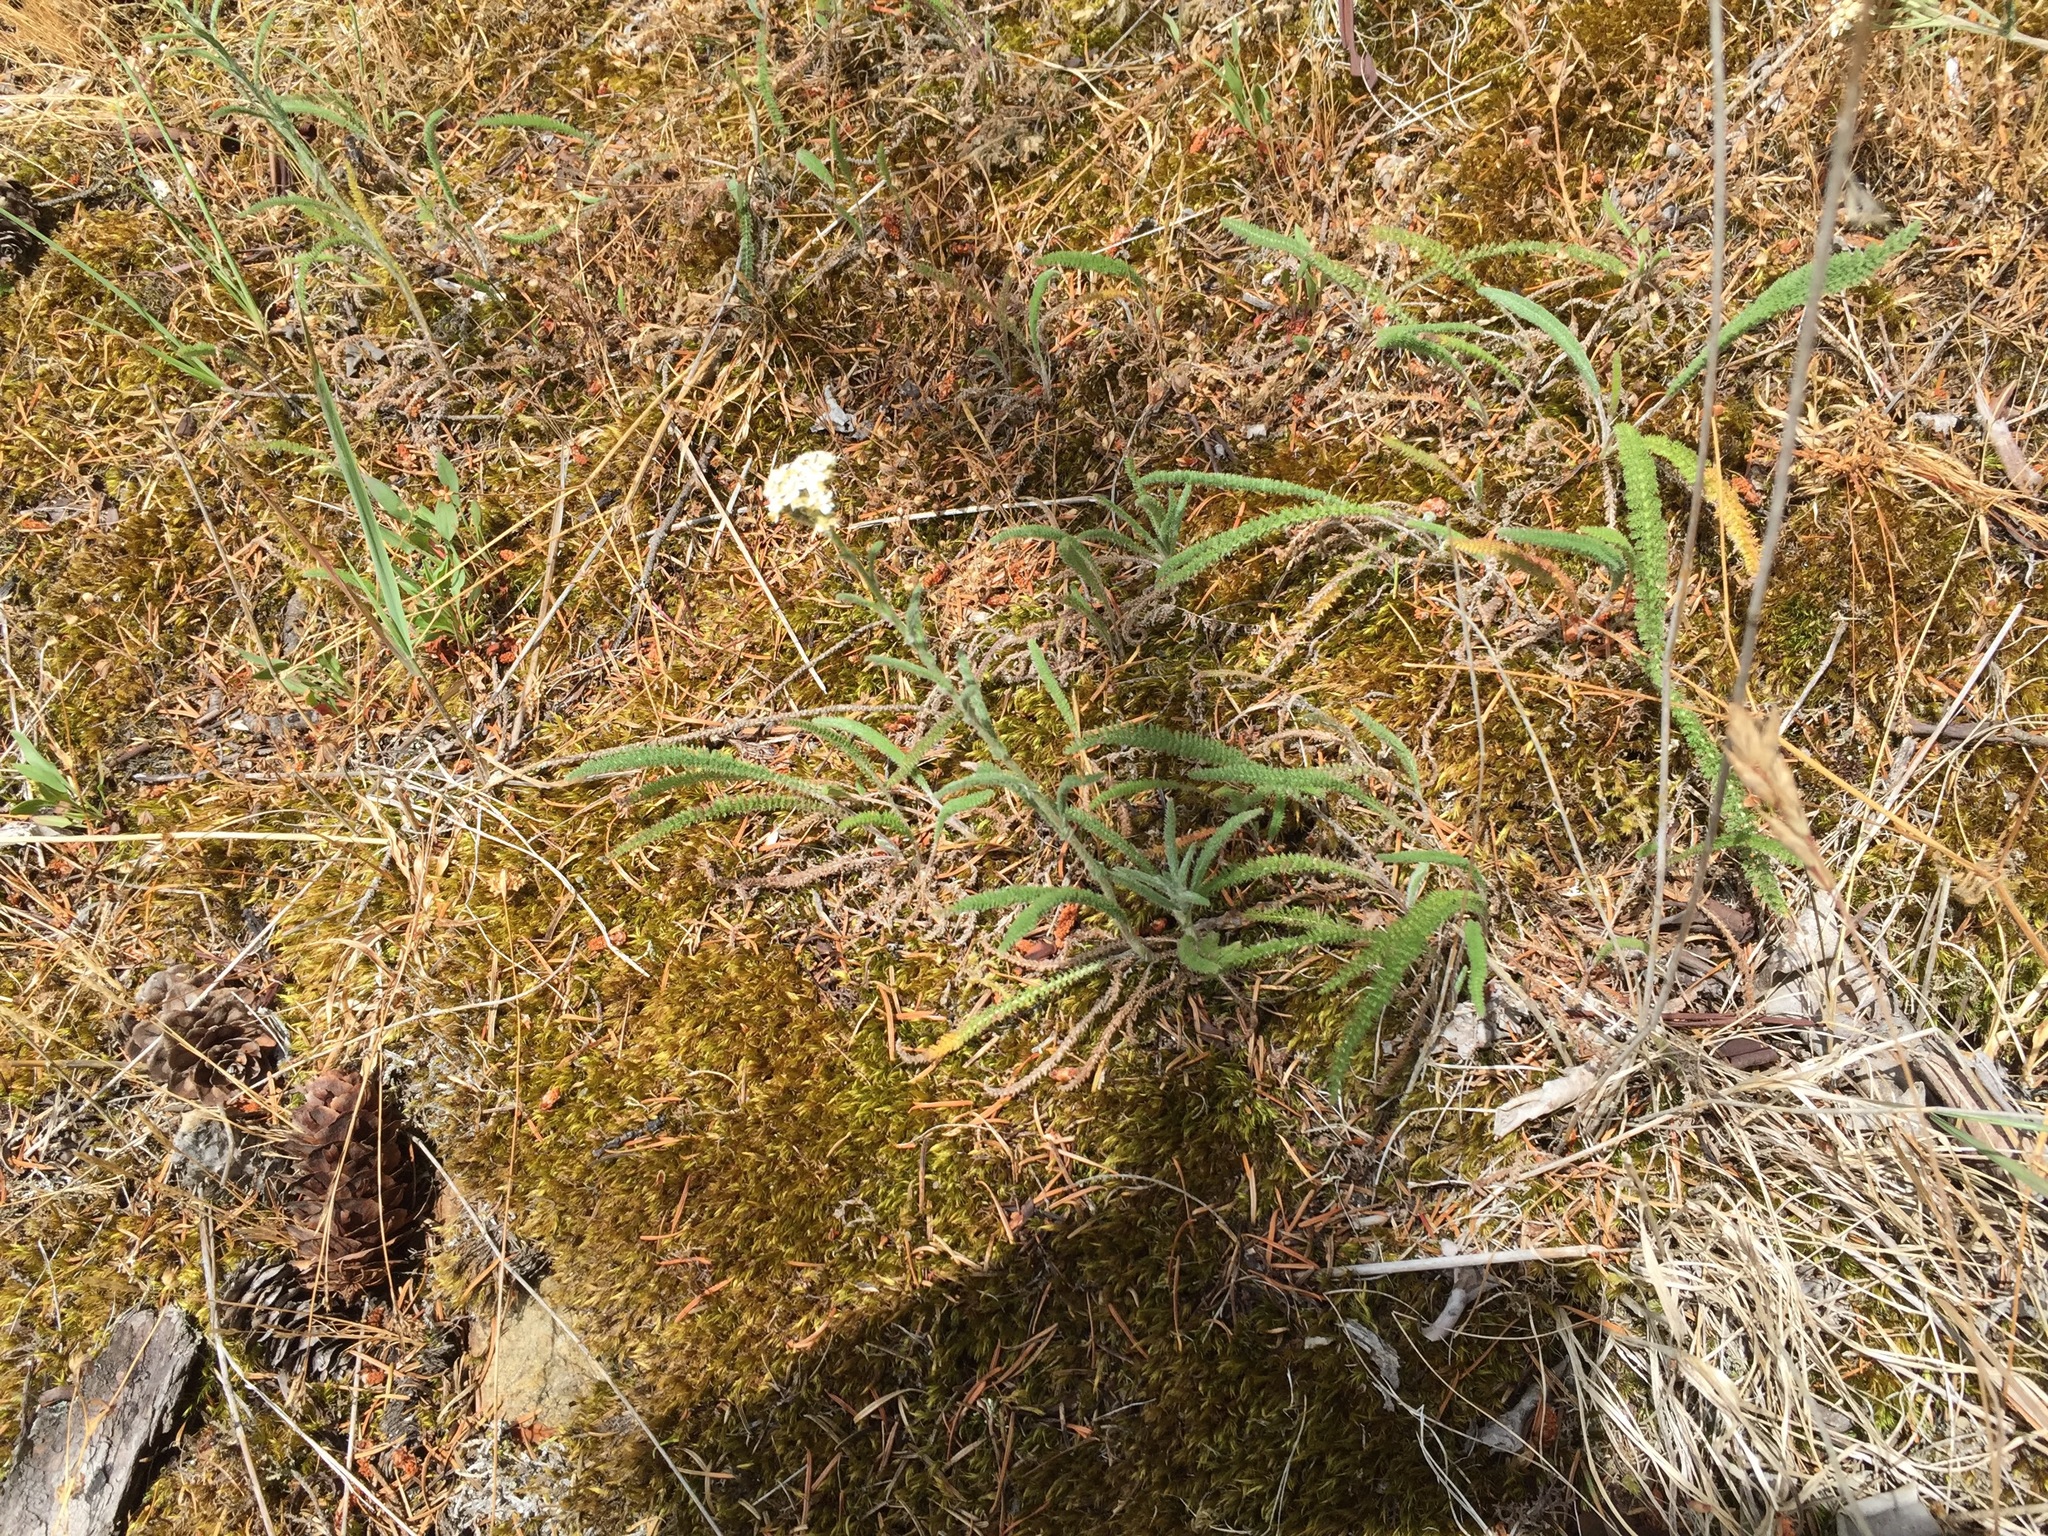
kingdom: Plantae
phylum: Tracheophyta
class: Magnoliopsida
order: Asterales
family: Asteraceae
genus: Achillea
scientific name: Achillea millefolium
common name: Yarrow
